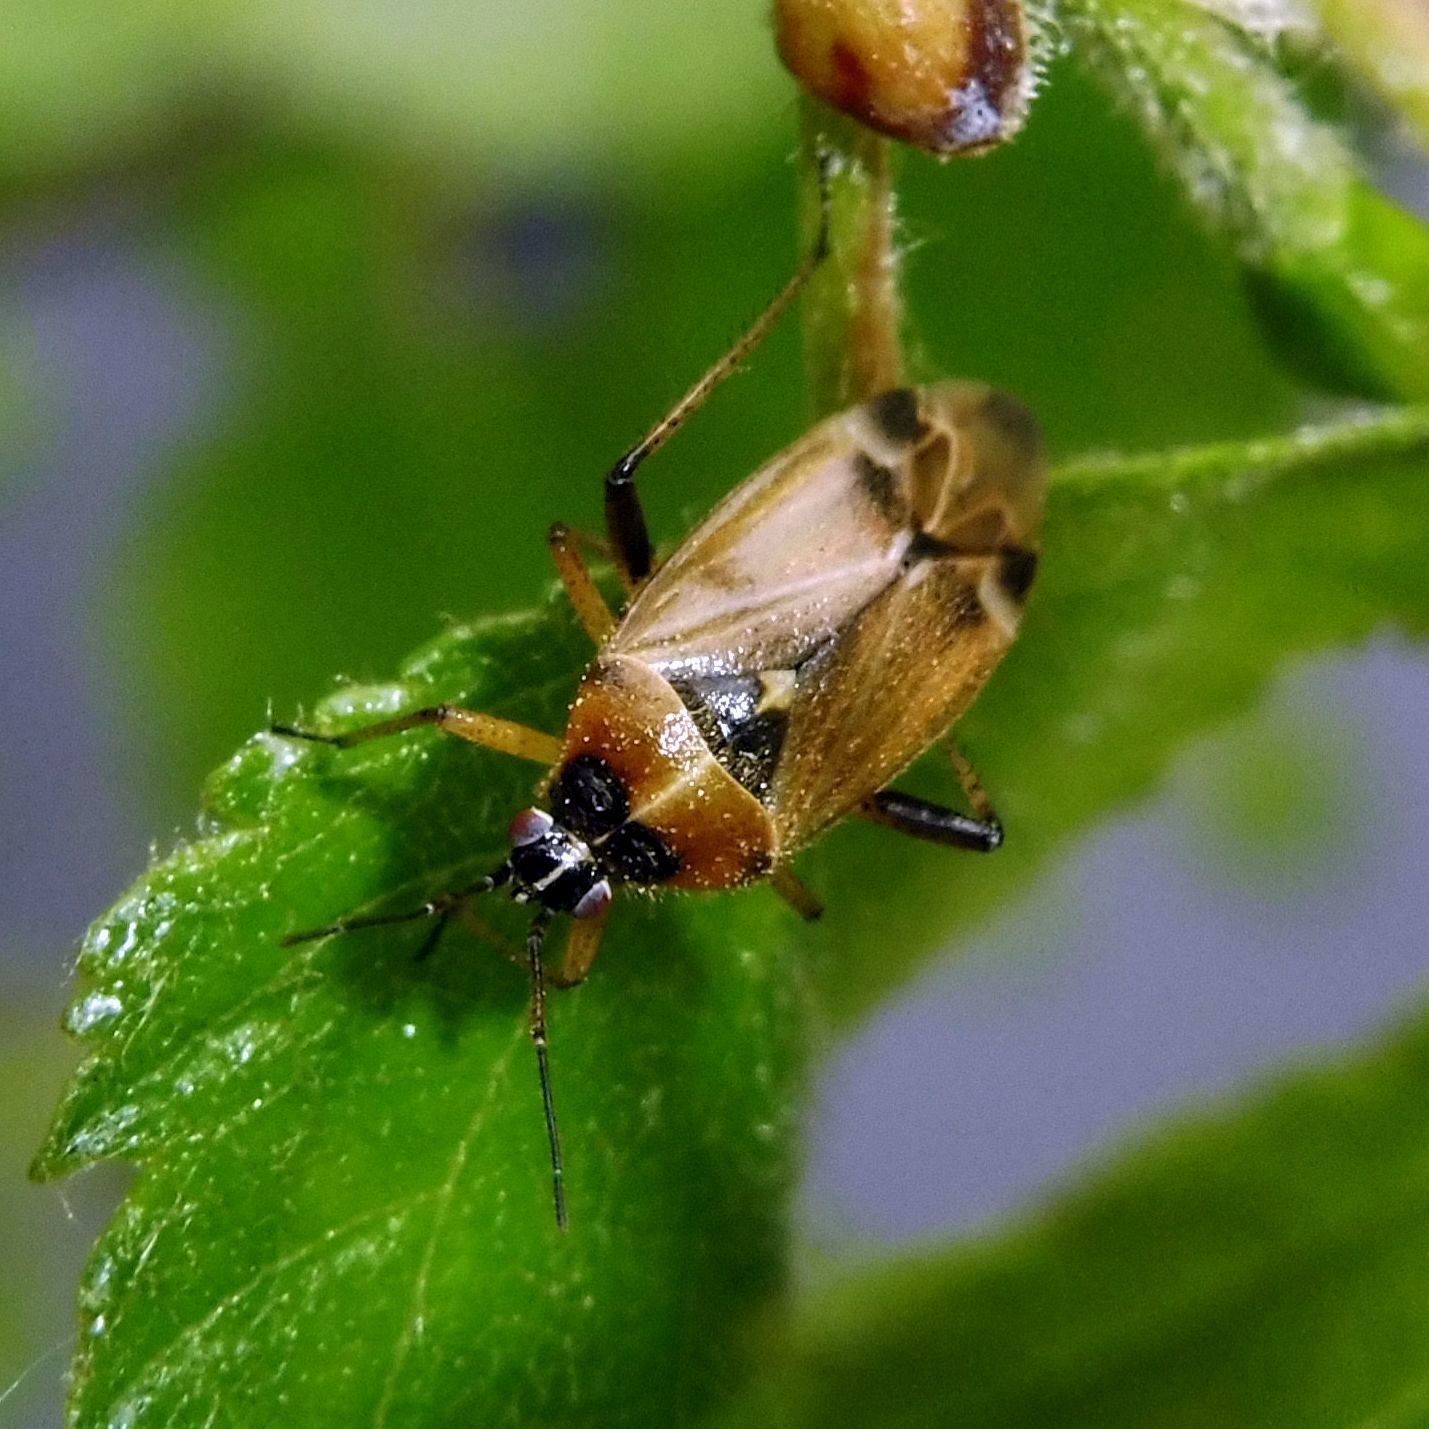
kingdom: Animalia
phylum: Arthropoda
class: Insecta
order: Hemiptera
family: Miridae
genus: Harpocera
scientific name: Harpocera thoracica
